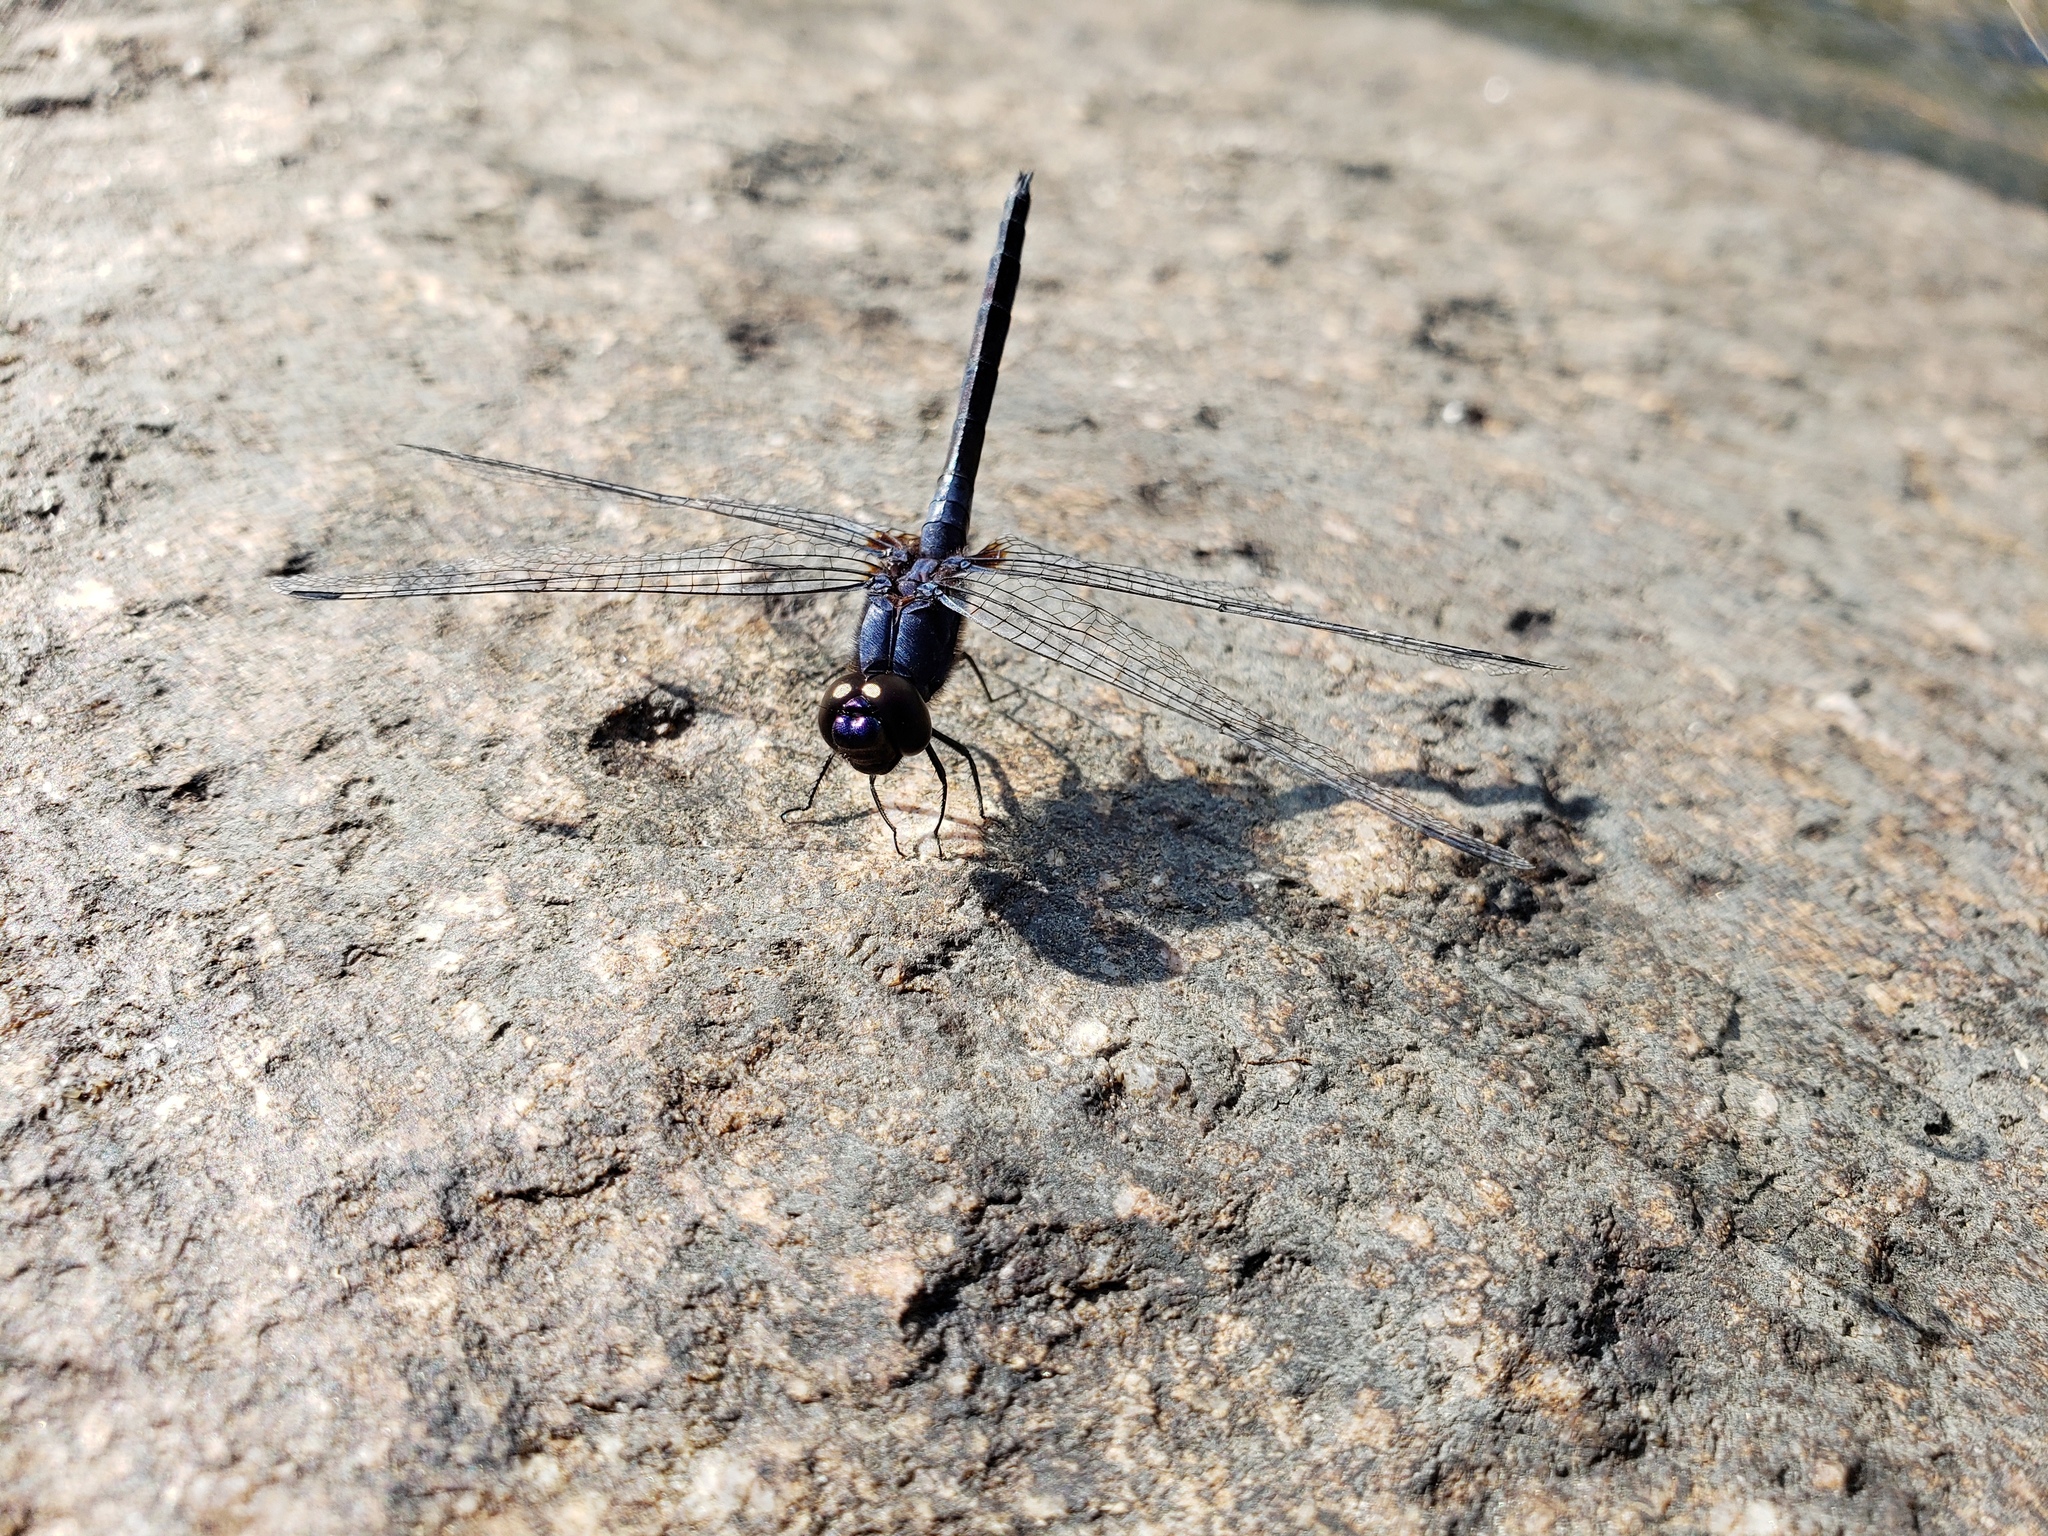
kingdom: Animalia
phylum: Arthropoda
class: Insecta
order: Odonata
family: Libellulidae
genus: Trithemis
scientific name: Trithemis festiva
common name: Indigo dropwing
